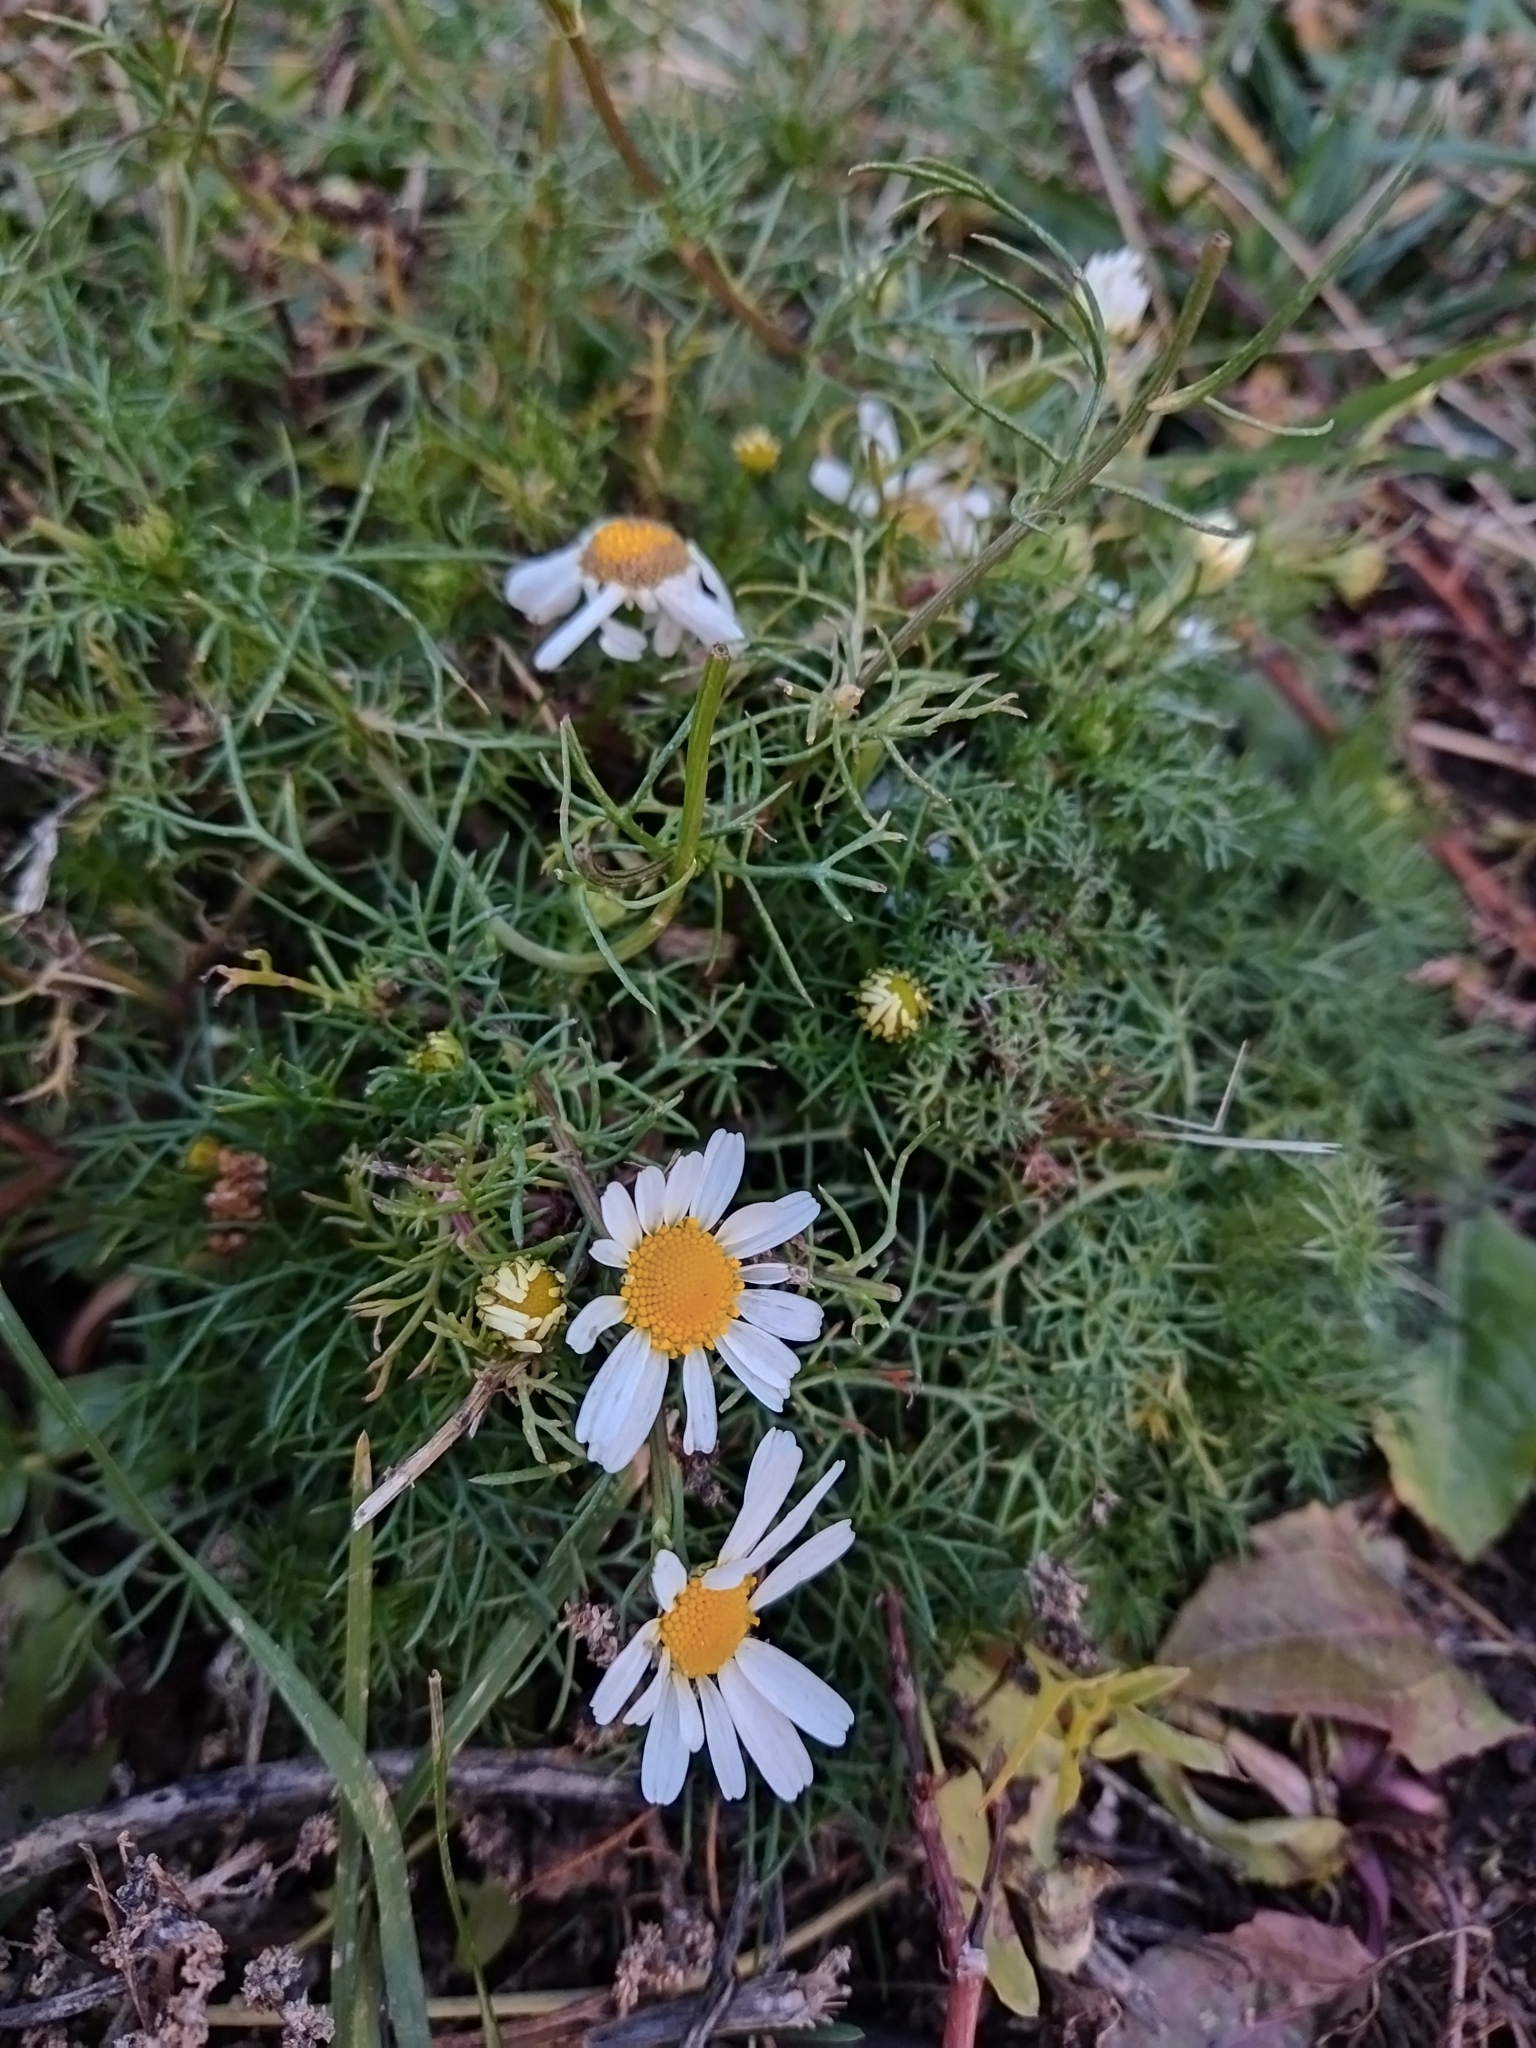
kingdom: Plantae
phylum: Tracheophyta
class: Magnoliopsida
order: Asterales
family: Asteraceae
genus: Tripleurospermum
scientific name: Tripleurospermum inodorum
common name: Scentless mayweed
